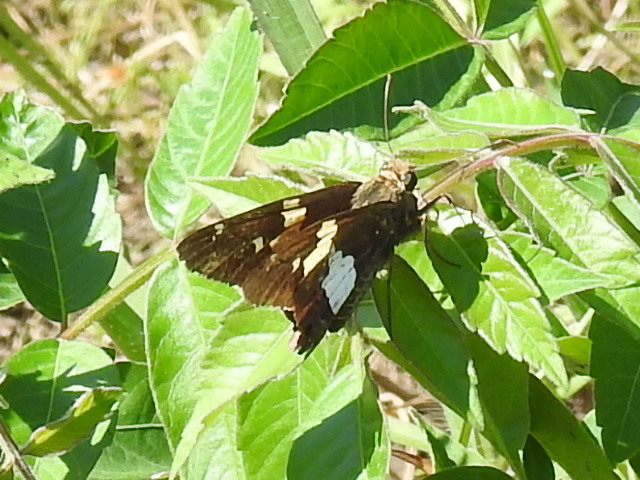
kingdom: Animalia
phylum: Arthropoda
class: Insecta
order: Lepidoptera
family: Hesperiidae
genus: Epargyreus
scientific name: Epargyreus clarus
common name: Silver-spotted skipper
